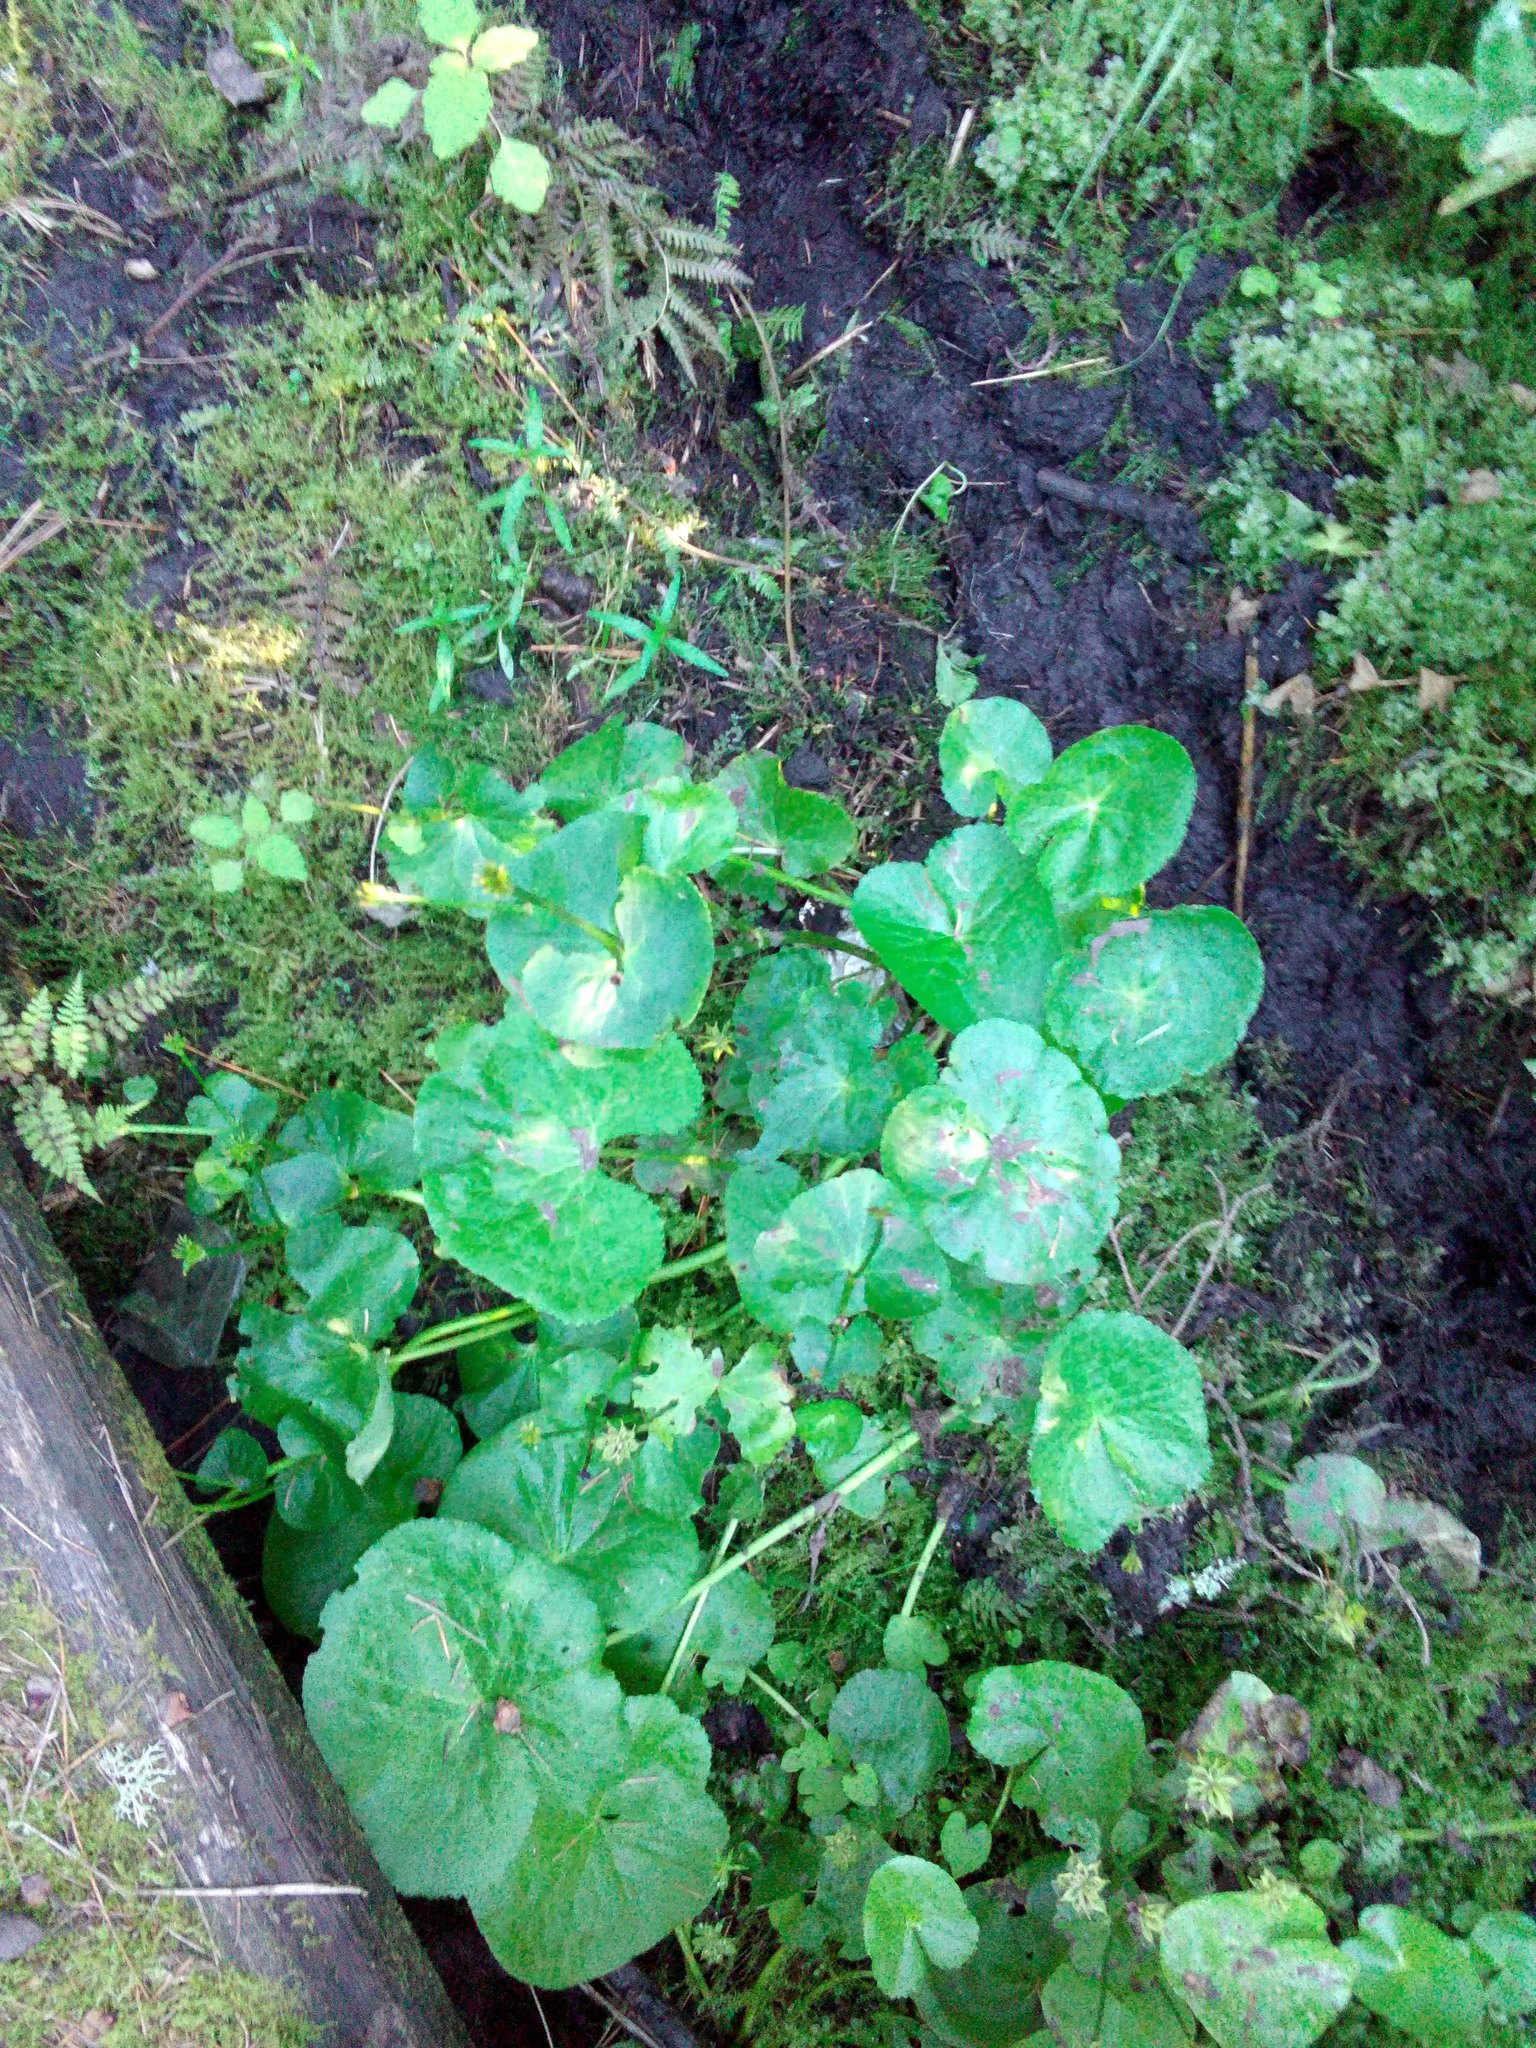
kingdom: Plantae
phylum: Tracheophyta
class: Magnoliopsida
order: Ranunculales
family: Ranunculaceae
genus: Caltha
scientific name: Caltha palustris
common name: Marsh marigold
